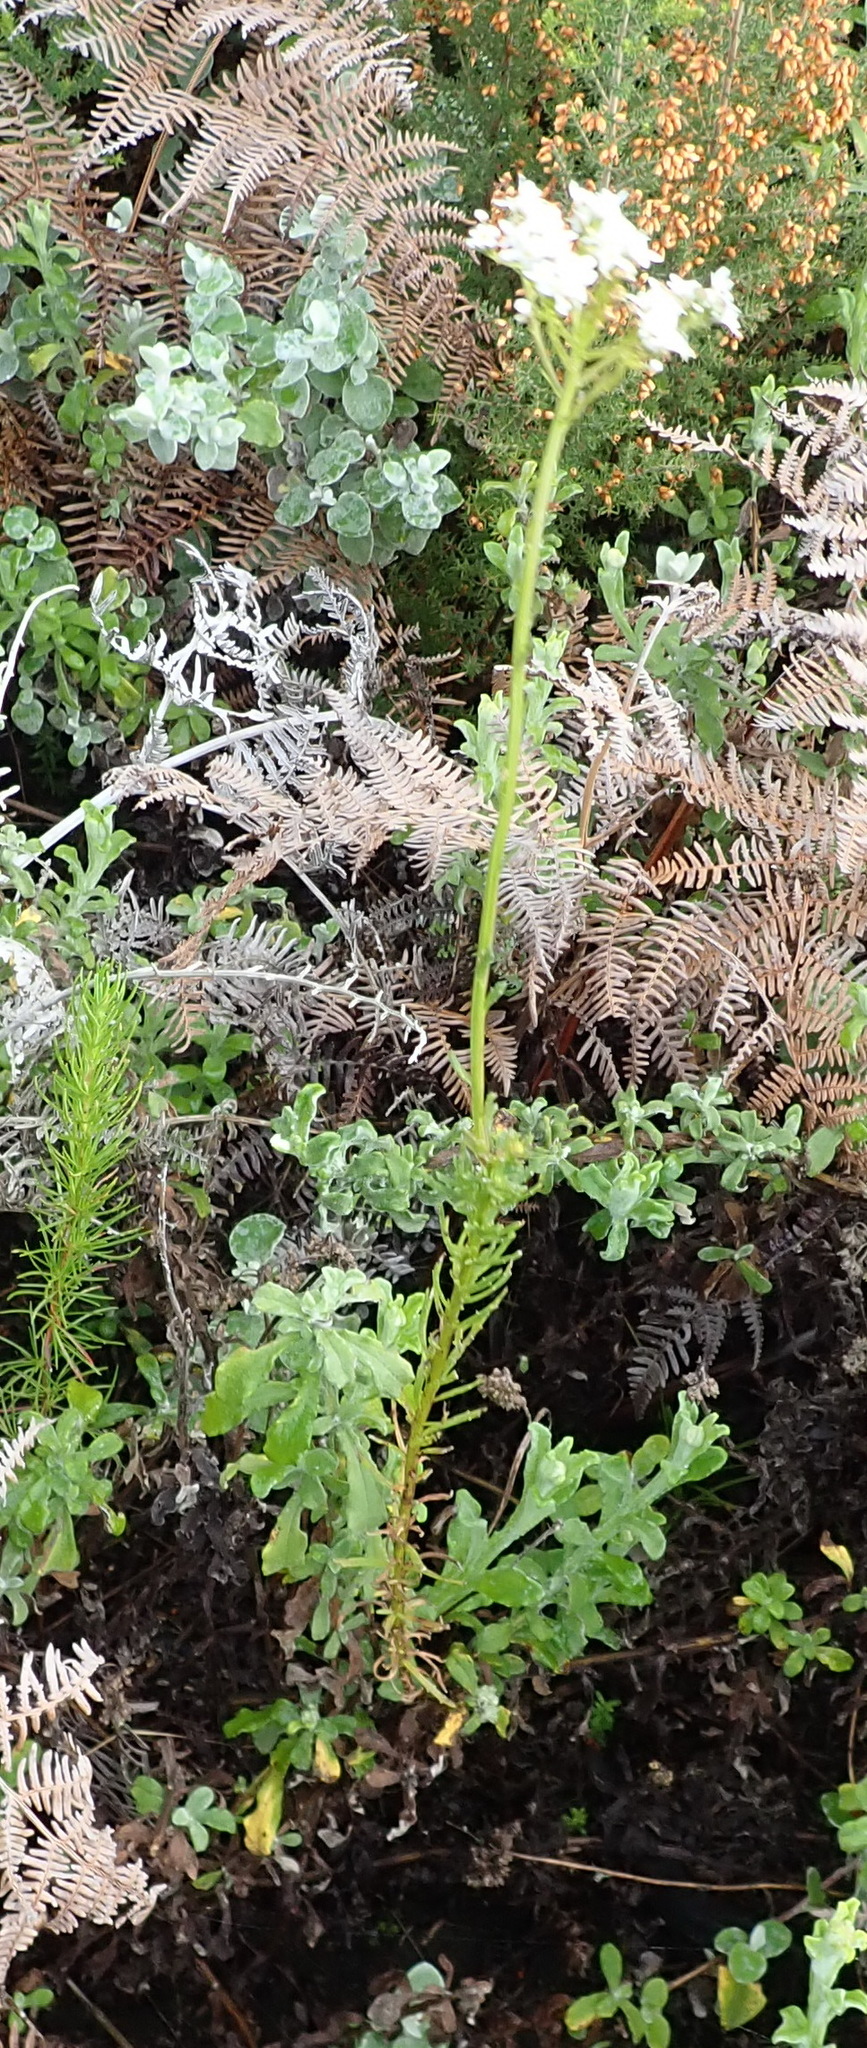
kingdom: Plantae
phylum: Tracheophyta
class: Magnoliopsida
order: Lamiales
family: Scrophulariaceae
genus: Pseudoselago
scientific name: Pseudoselago outeniquensis
